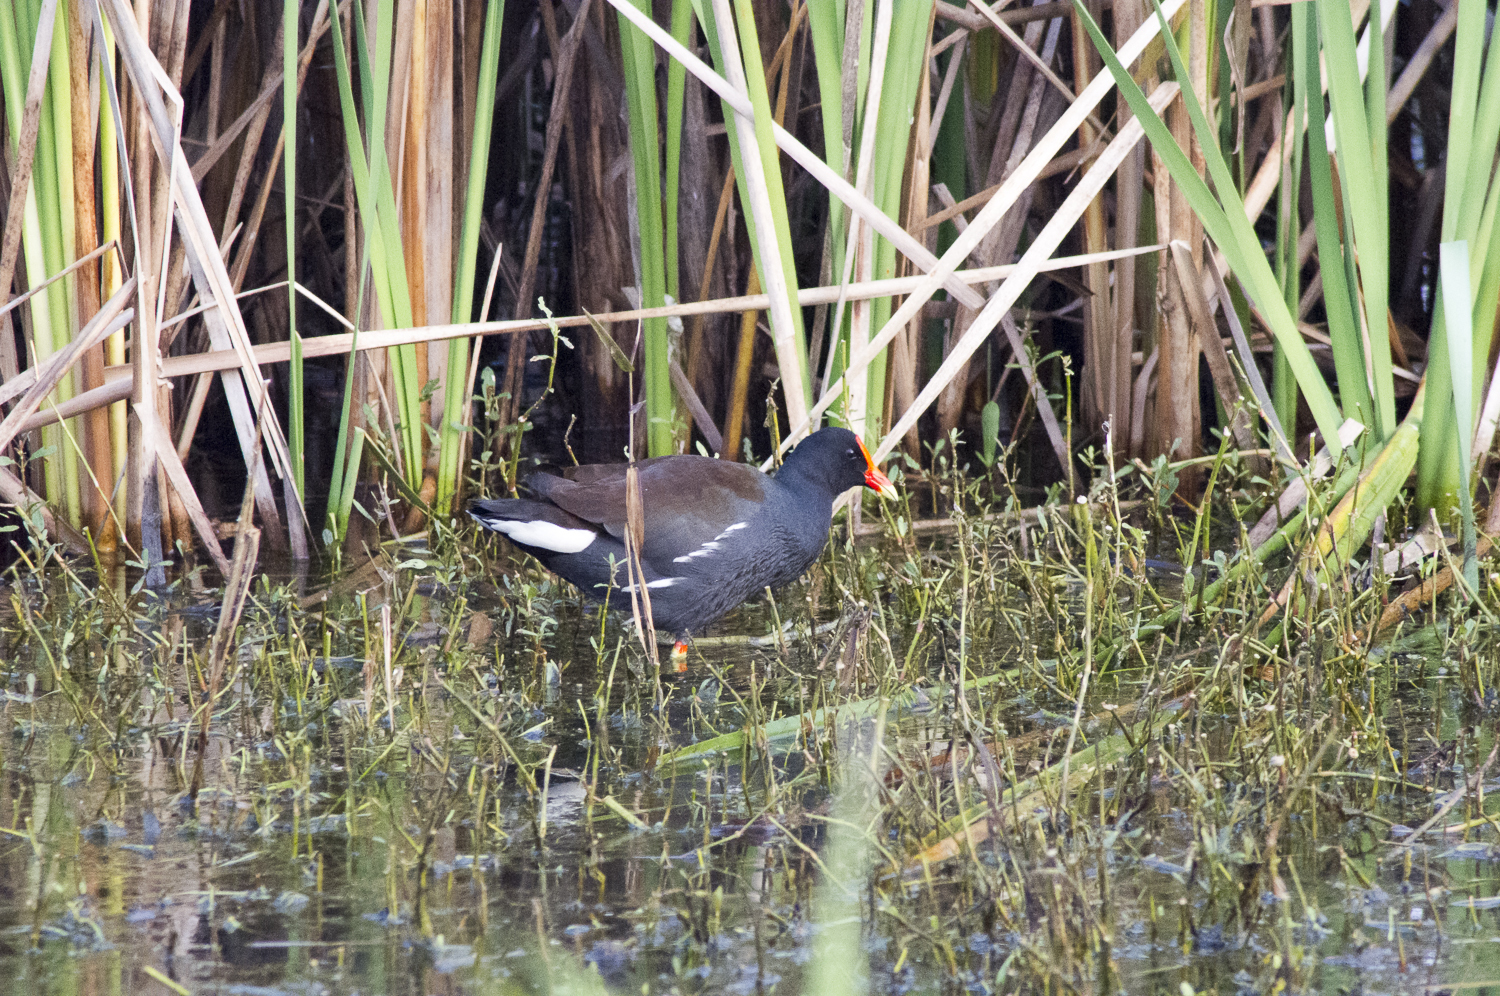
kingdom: Animalia
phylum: Chordata
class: Aves
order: Gruiformes
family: Rallidae
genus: Gallinula
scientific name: Gallinula chloropus
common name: Common moorhen
